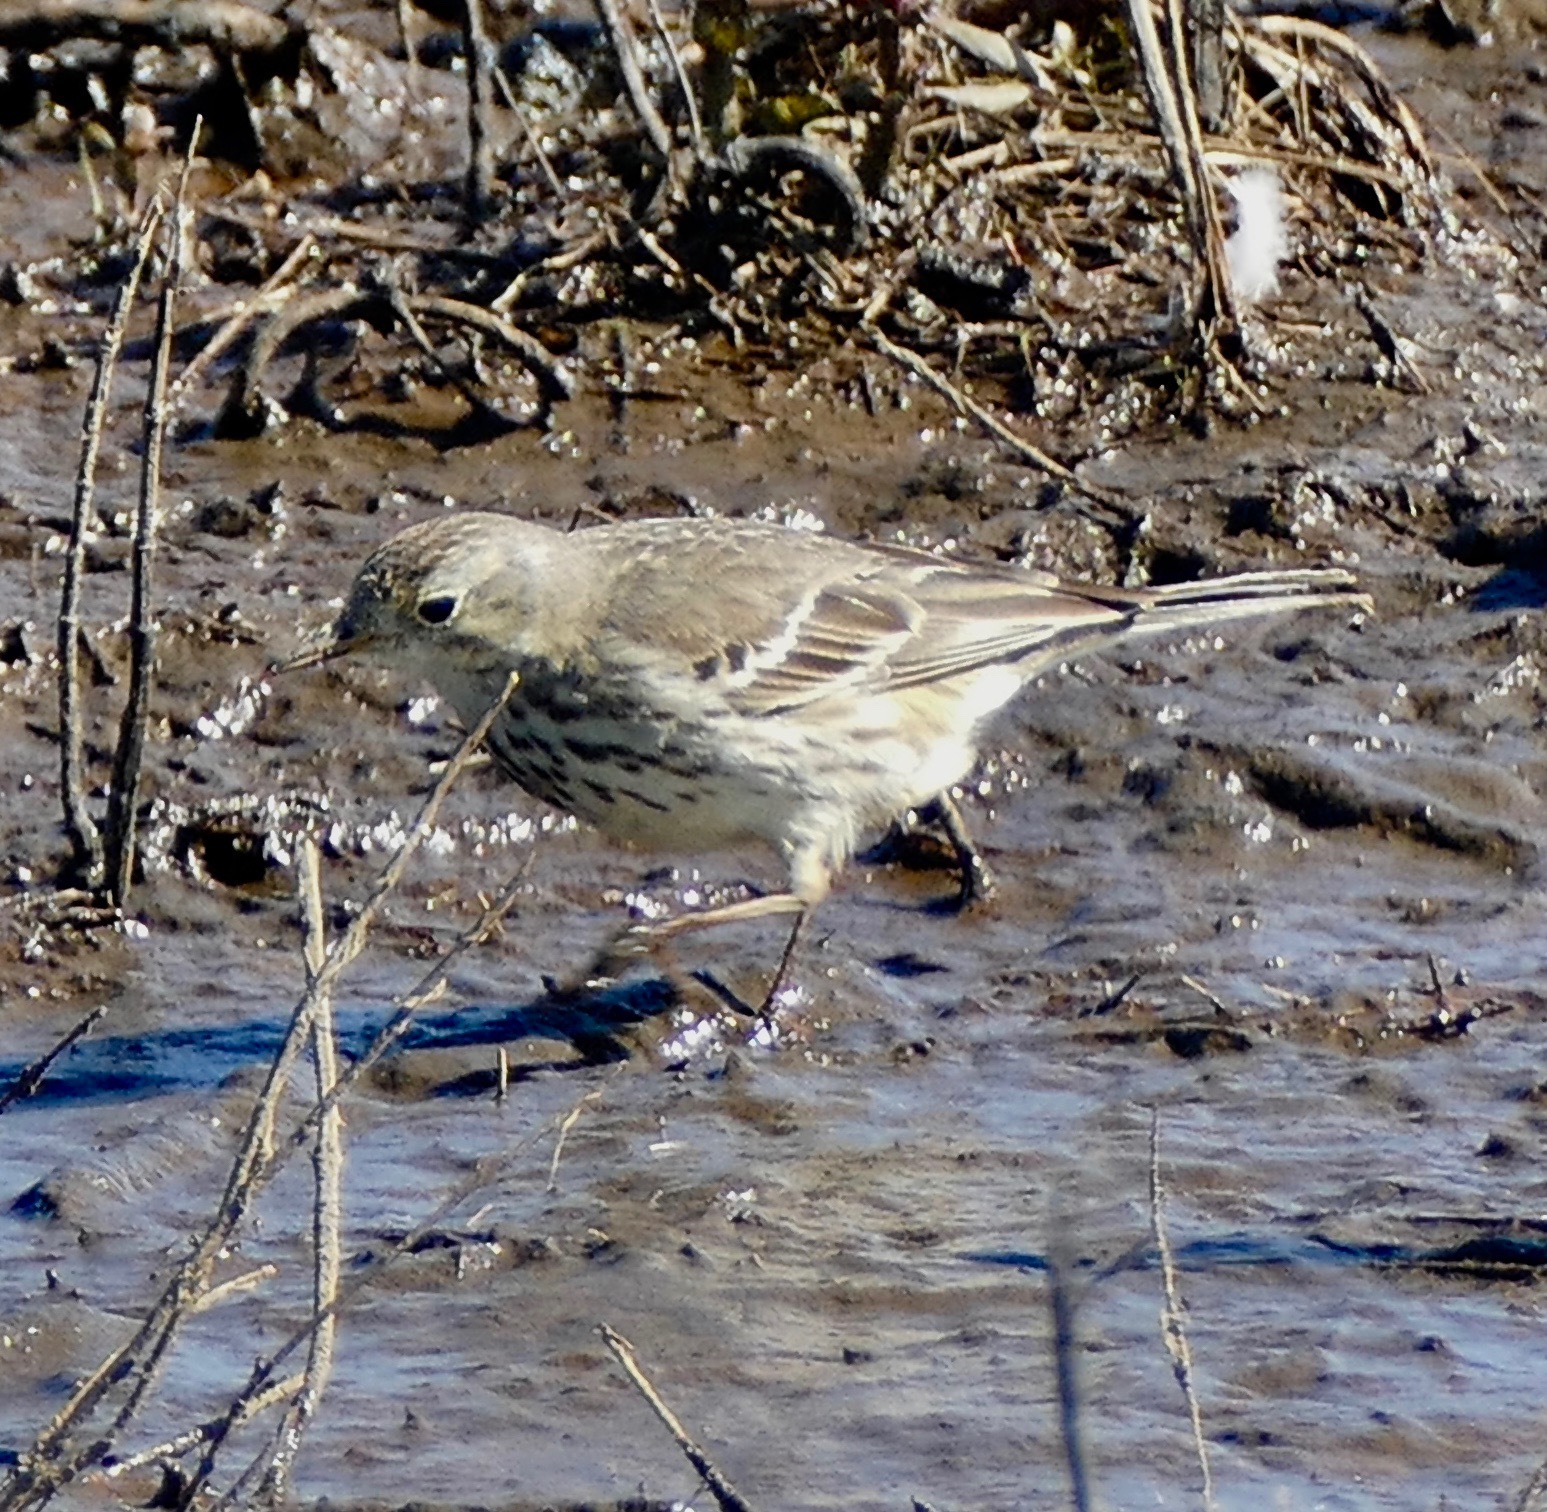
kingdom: Animalia
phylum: Chordata
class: Aves
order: Passeriformes
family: Motacillidae
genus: Anthus
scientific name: Anthus rubescens
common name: Buff-bellied pipit
